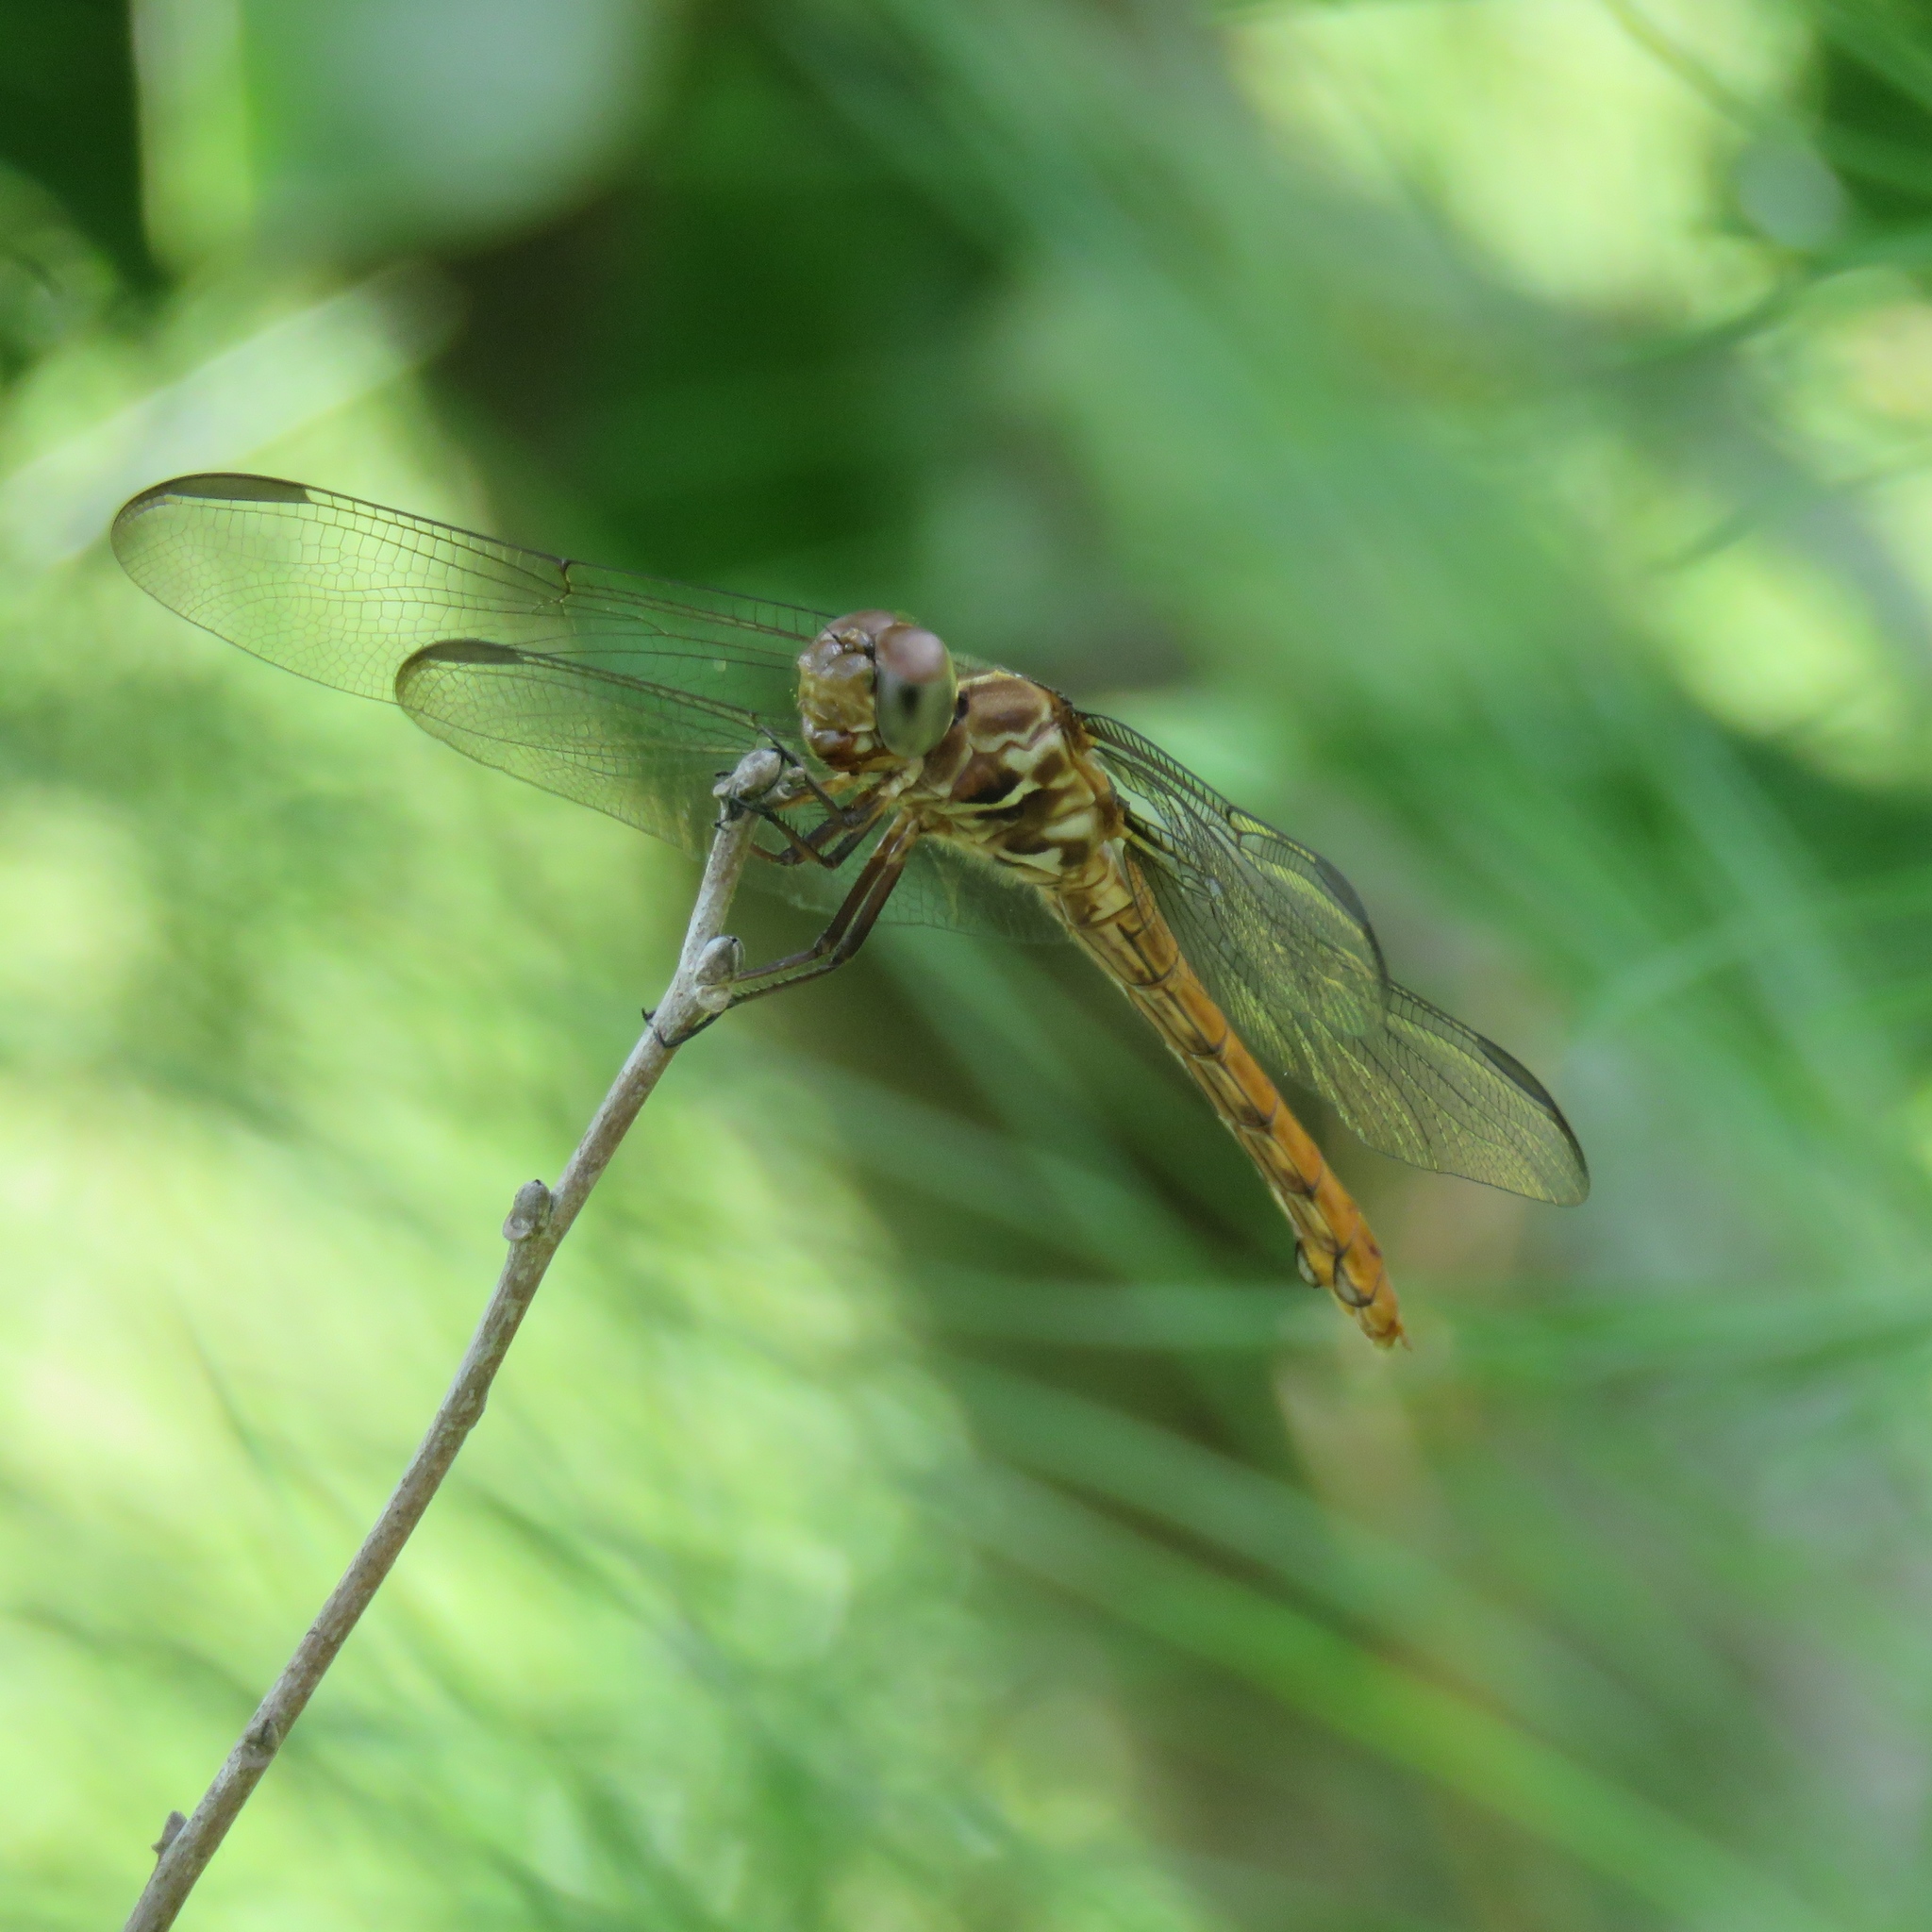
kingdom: Animalia
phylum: Arthropoda
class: Insecta
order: Odonata
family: Libellulidae
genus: Orthemis
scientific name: Orthemis ferruginea
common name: Roseate skimmer
